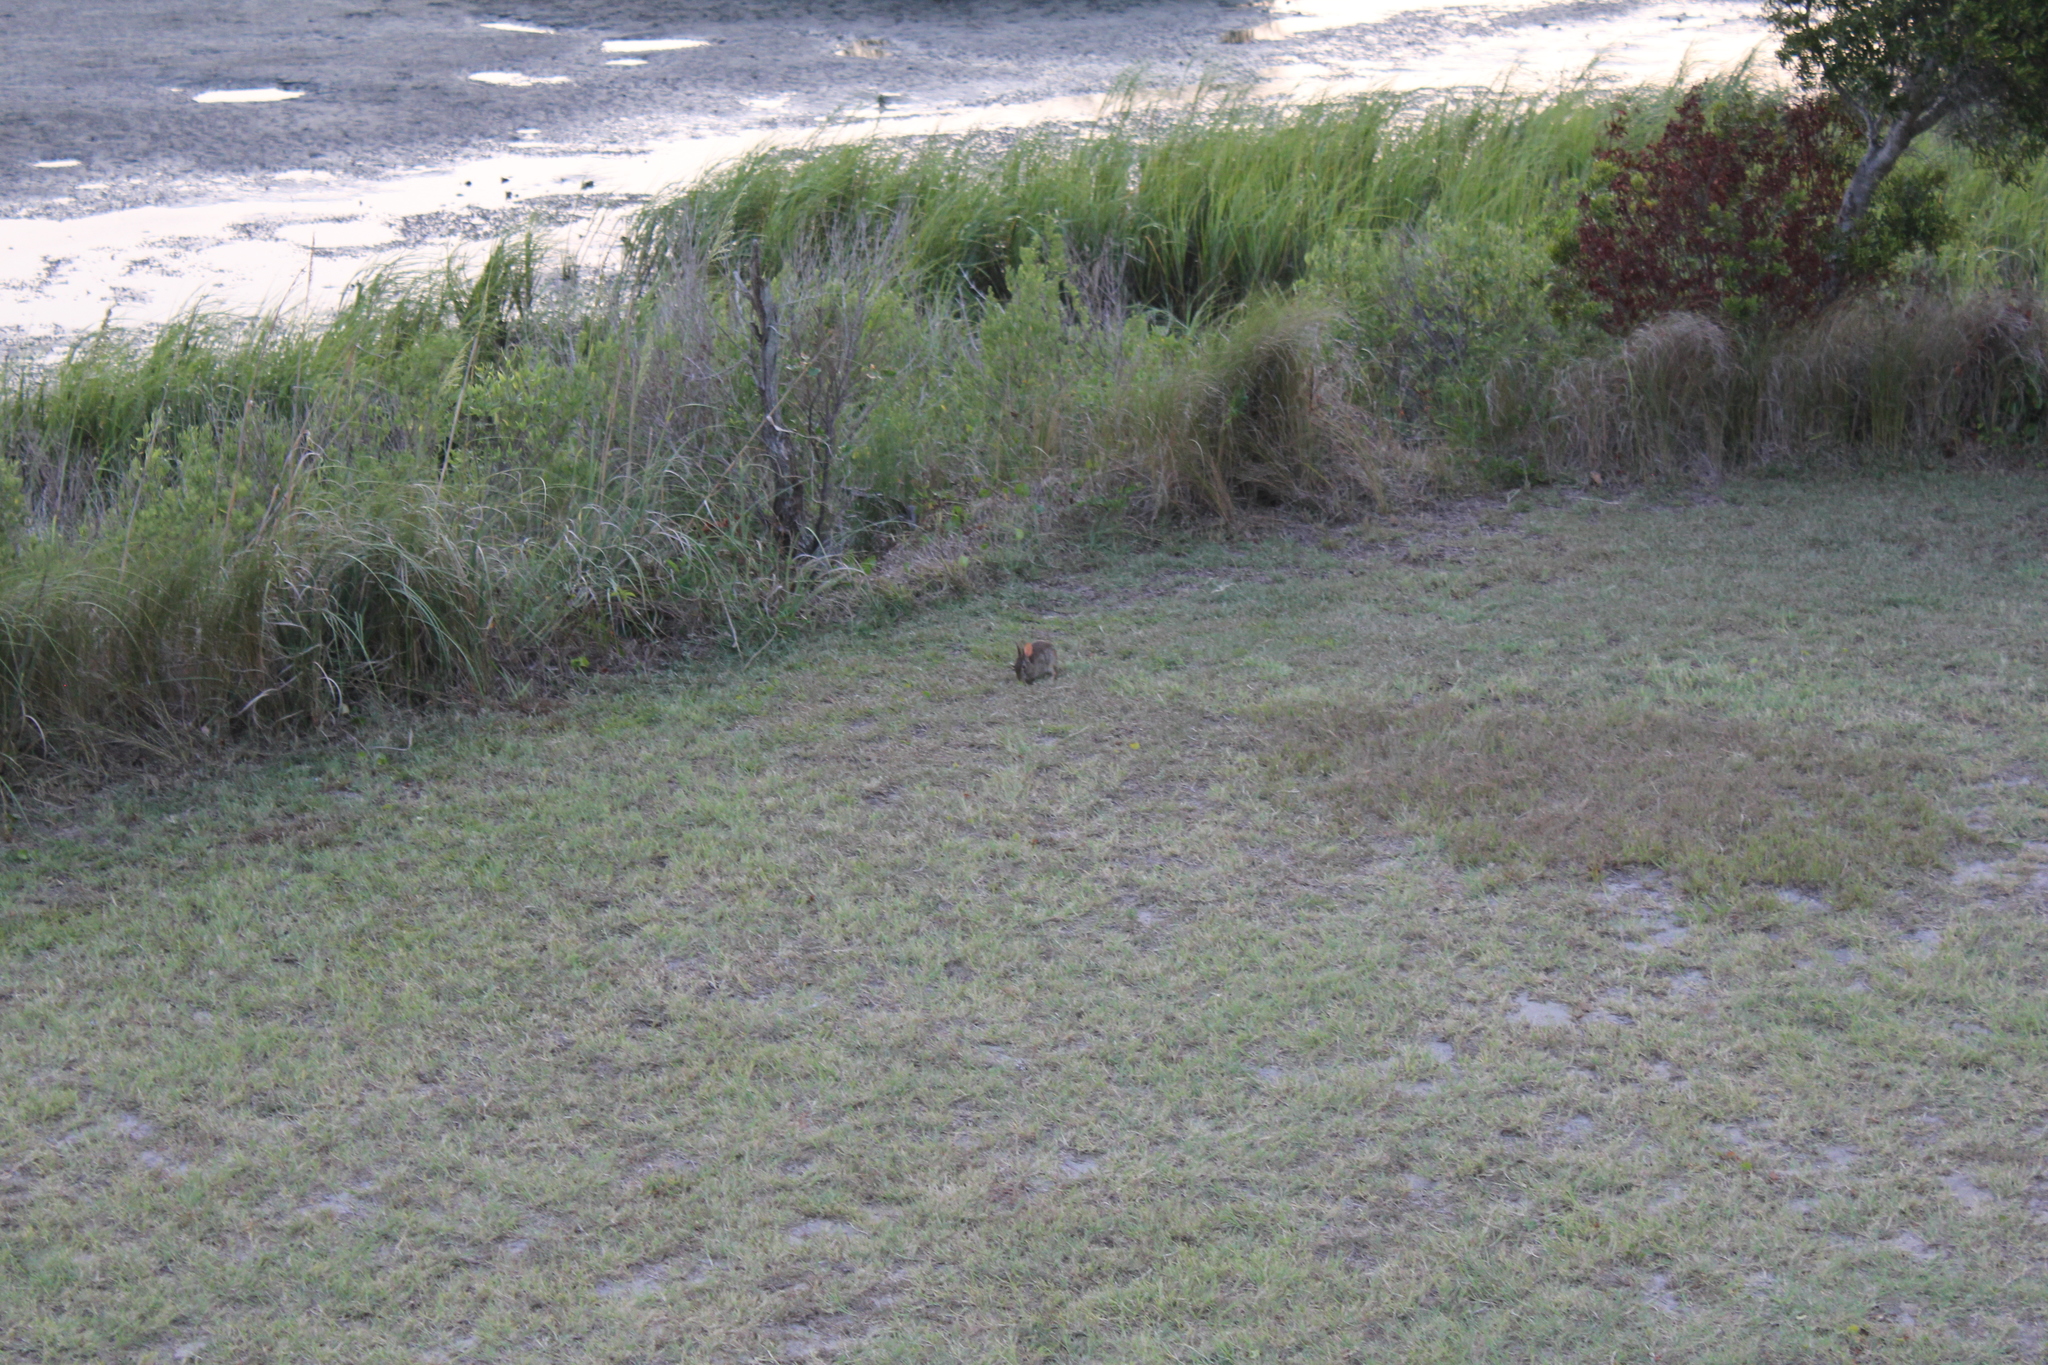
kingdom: Animalia
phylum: Chordata
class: Mammalia
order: Lagomorpha
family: Leporidae
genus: Sylvilagus
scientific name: Sylvilagus floridanus
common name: Eastern cottontail
